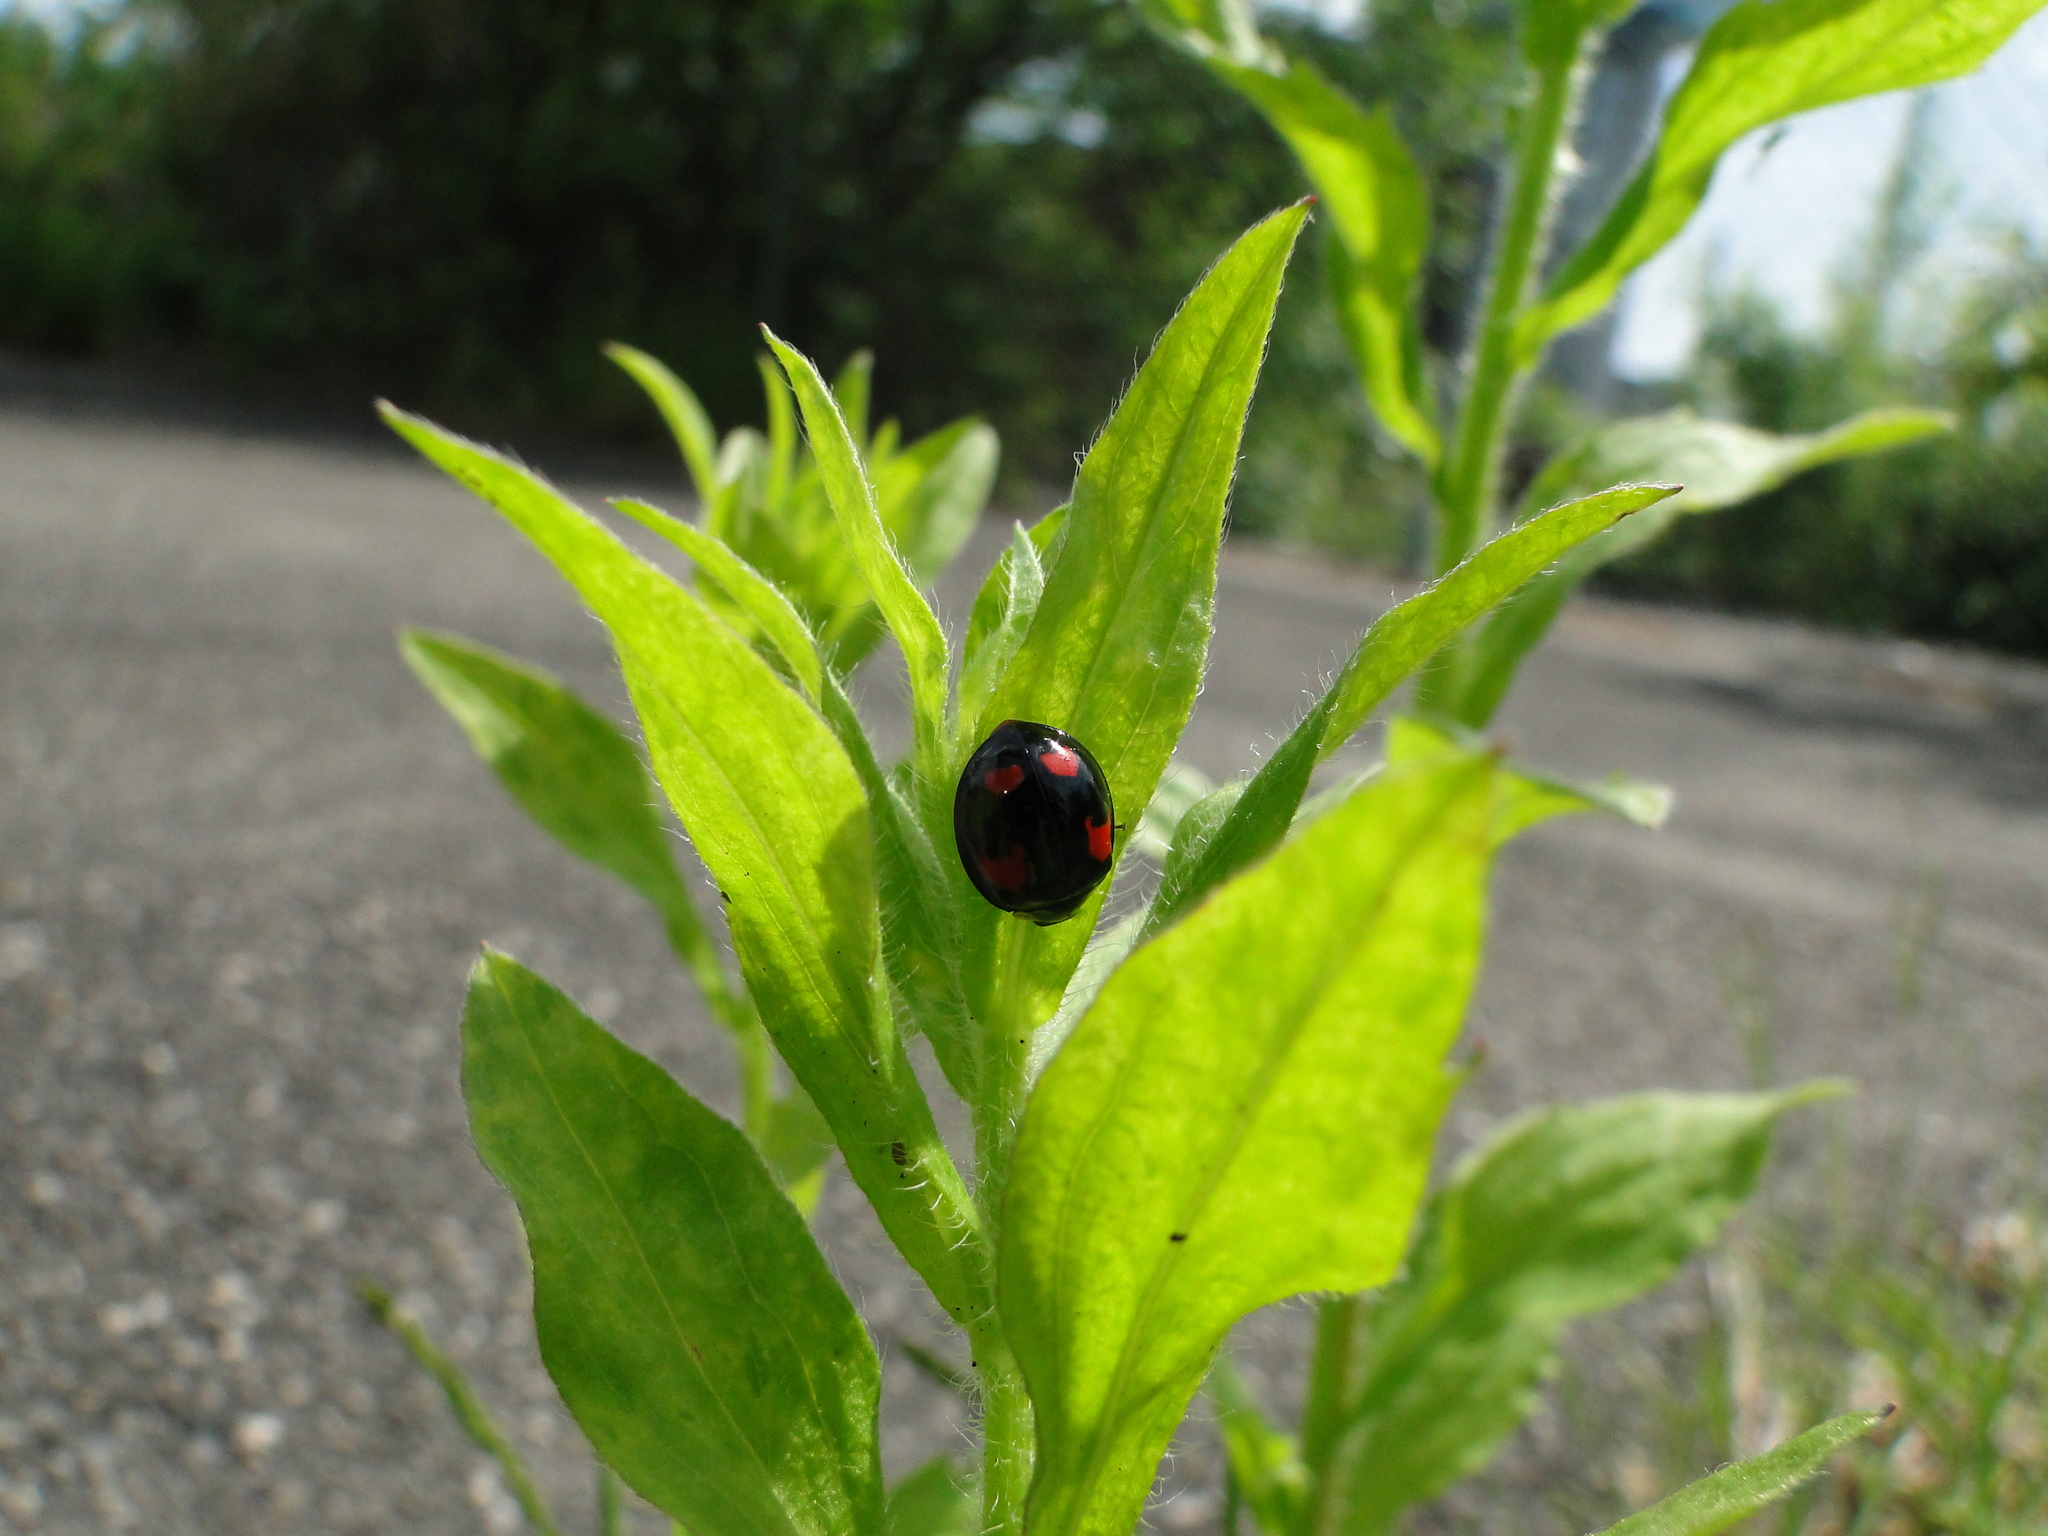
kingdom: Animalia
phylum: Arthropoda
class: Insecta
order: Coleoptera
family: Coccinellidae
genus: Harmonia
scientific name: Harmonia axyridis
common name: Harlequin ladybird
